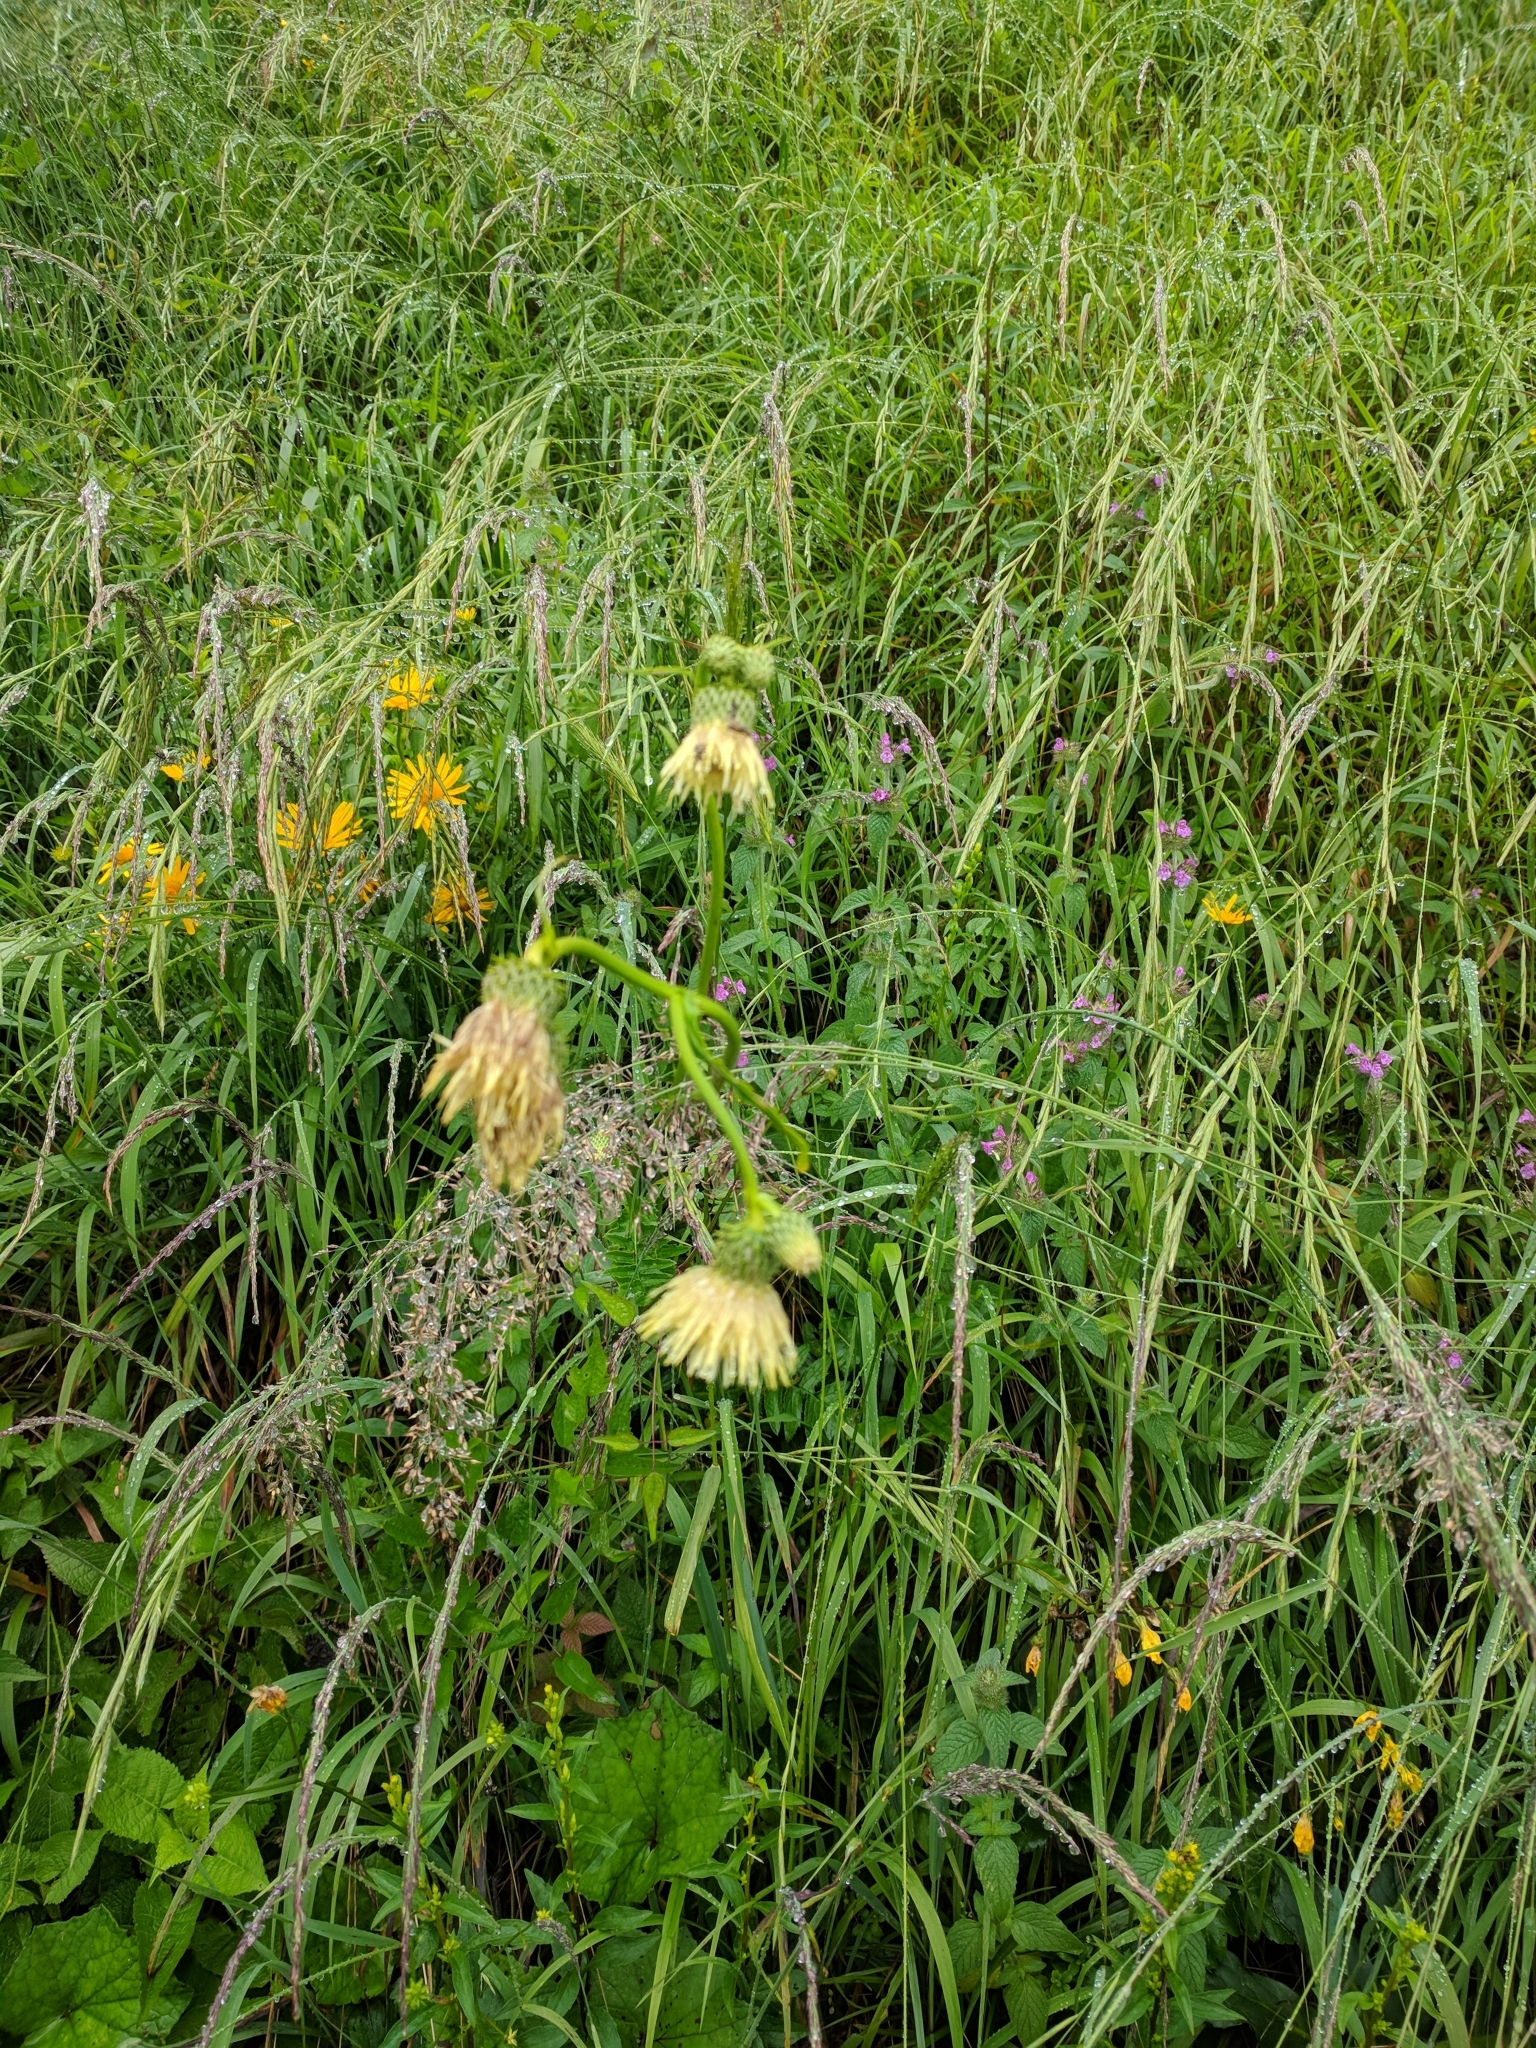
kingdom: Plantae
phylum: Tracheophyta
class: Magnoliopsida
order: Asterales
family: Asteraceae
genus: Cirsium
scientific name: Cirsium erisithales
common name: Yellow thistle
